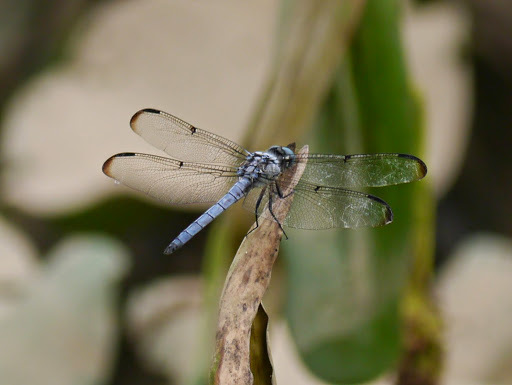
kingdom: Animalia
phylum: Arthropoda
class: Insecta
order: Odonata
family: Libellulidae
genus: Libellula
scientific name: Libellula vibrans
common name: Great blue skimmer
